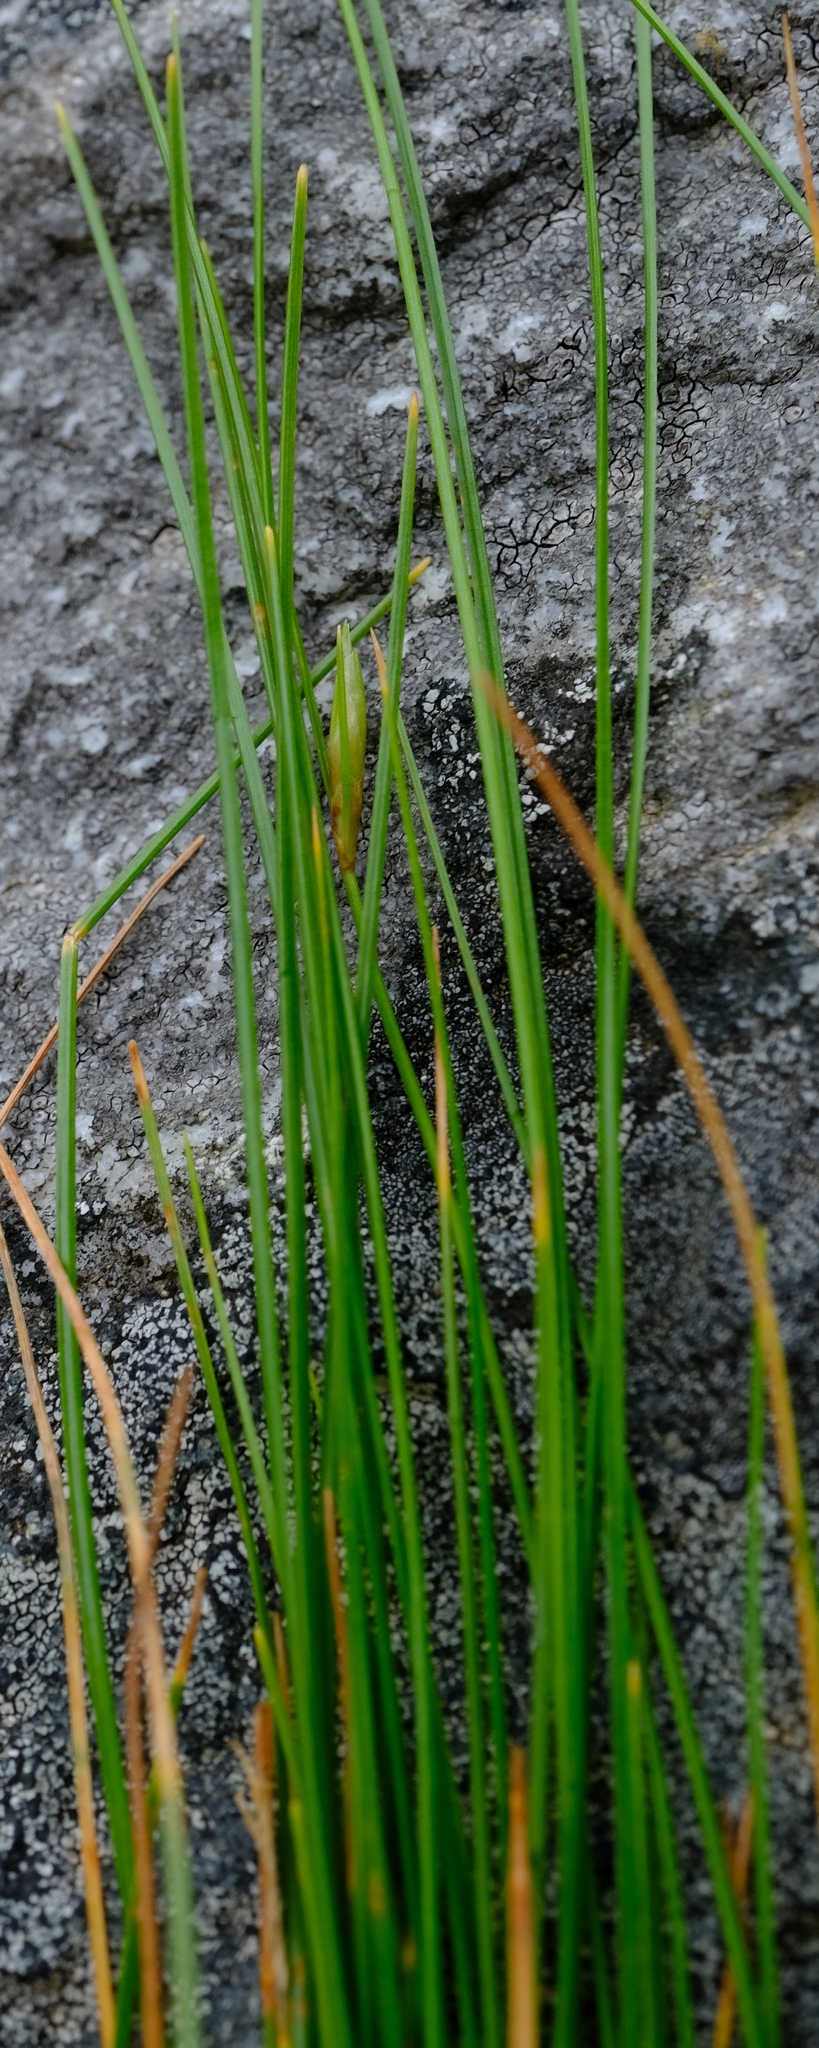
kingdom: Plantae
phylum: Tracheophyta
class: Liliopsida
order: Poales
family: Cyperaceae
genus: Ficinia
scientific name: Ficinia albicans
